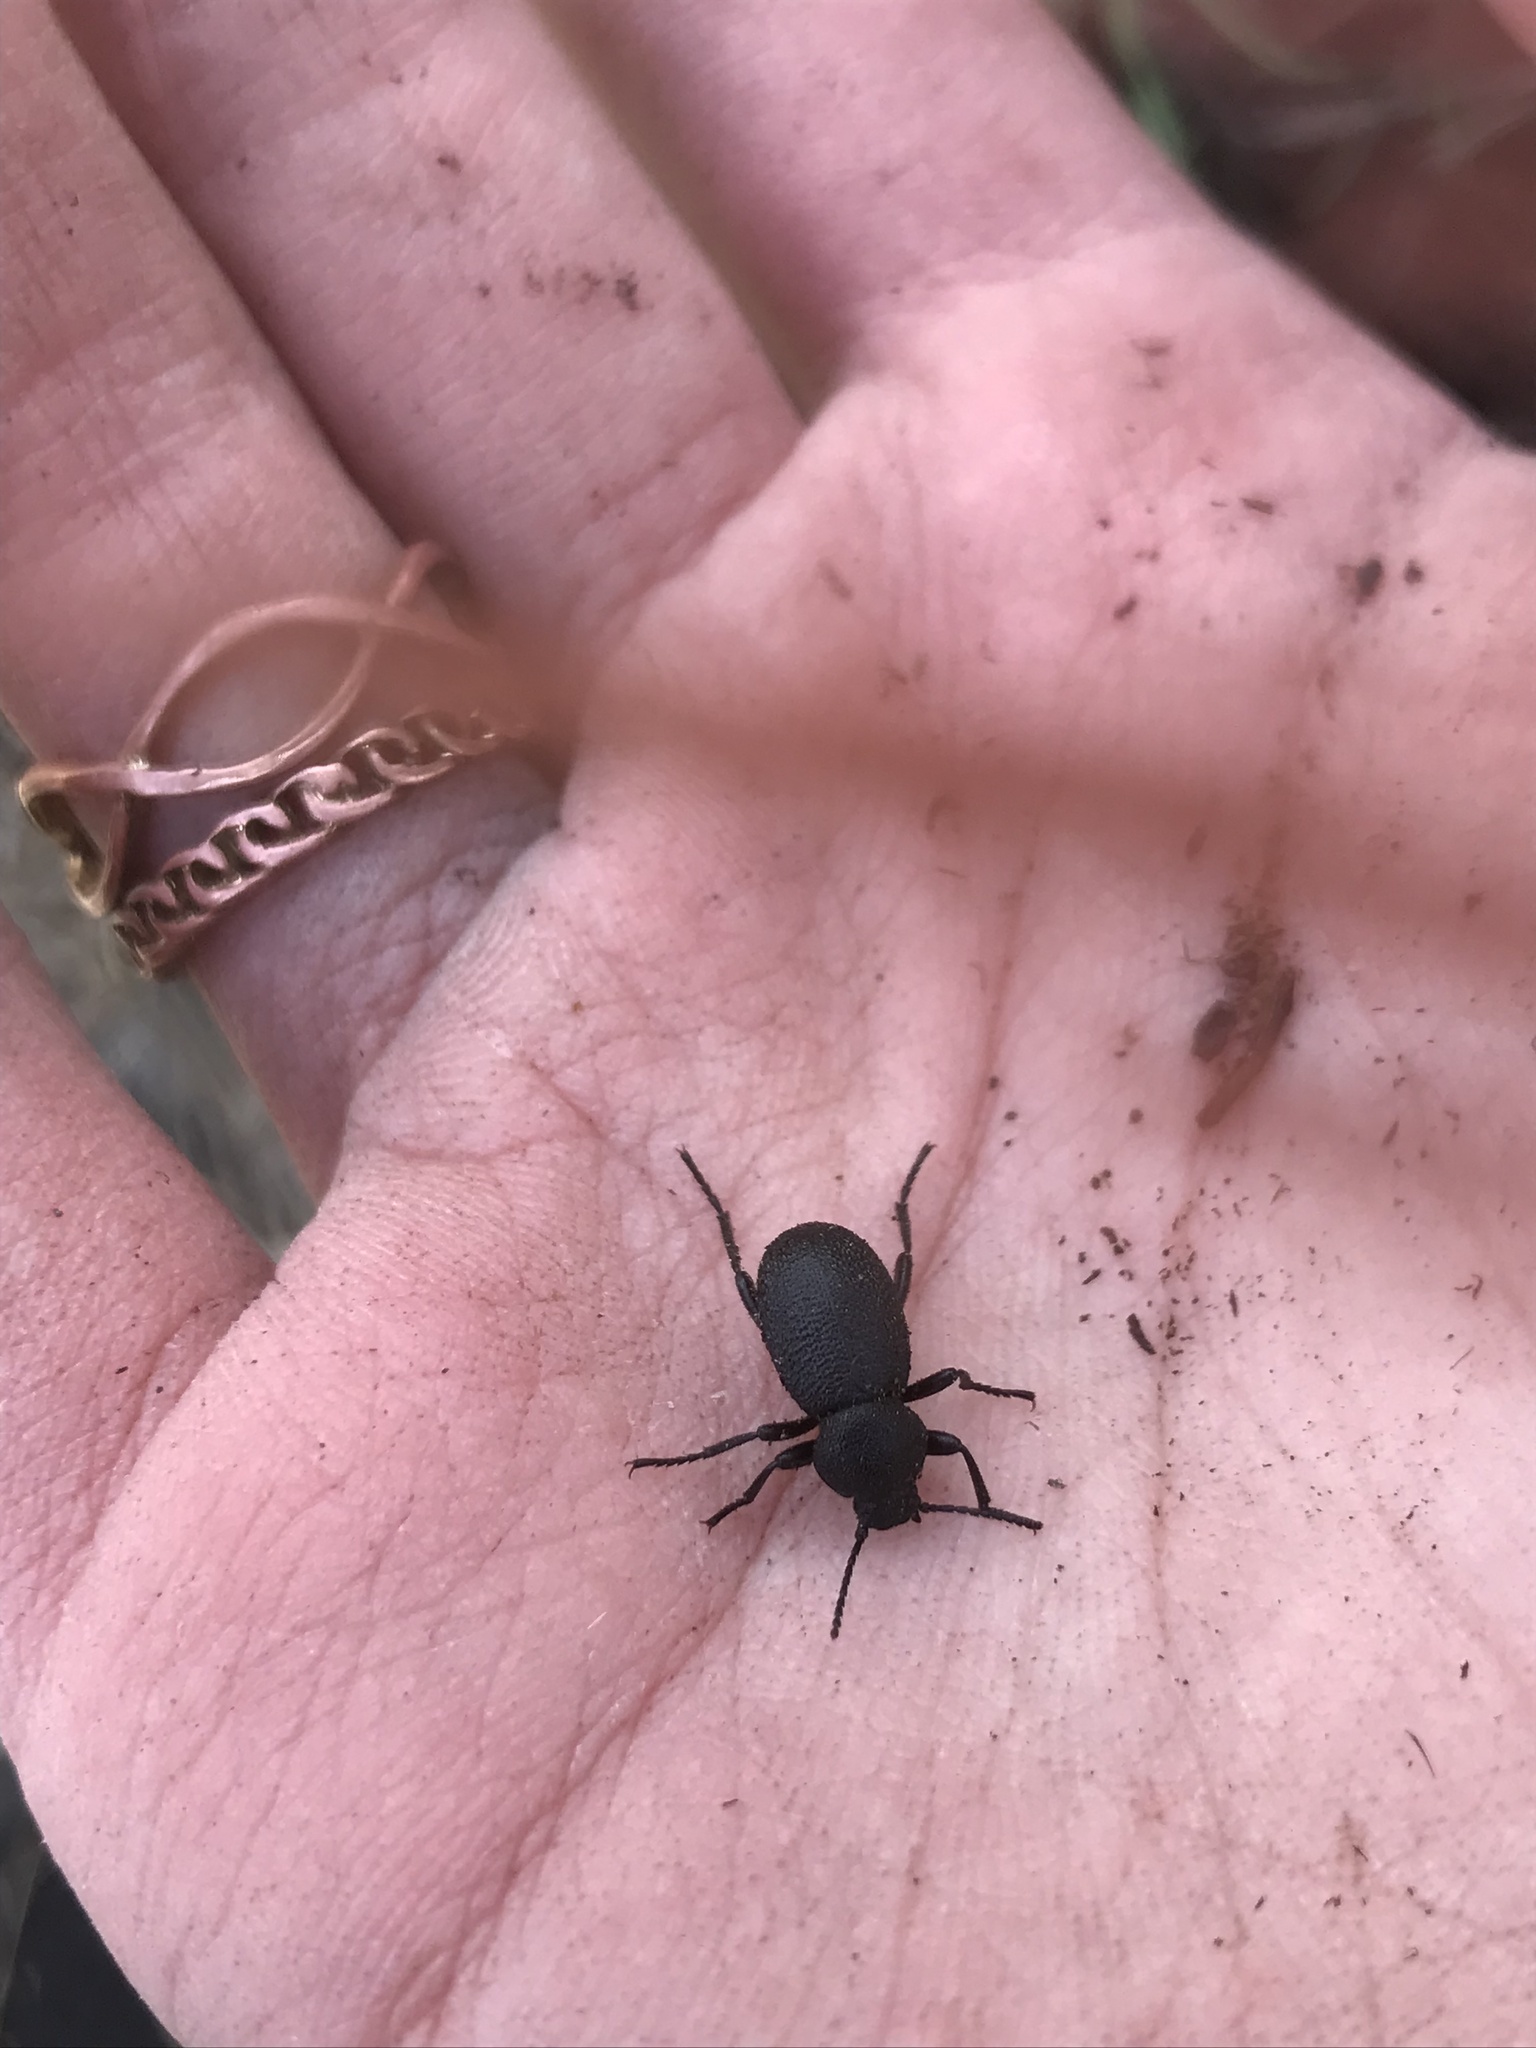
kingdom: Animalia
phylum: Arthropoda
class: Insecta
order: Coleoptera
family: Tenebrionidae
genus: Eleodes
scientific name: Eleodes pimelioides
